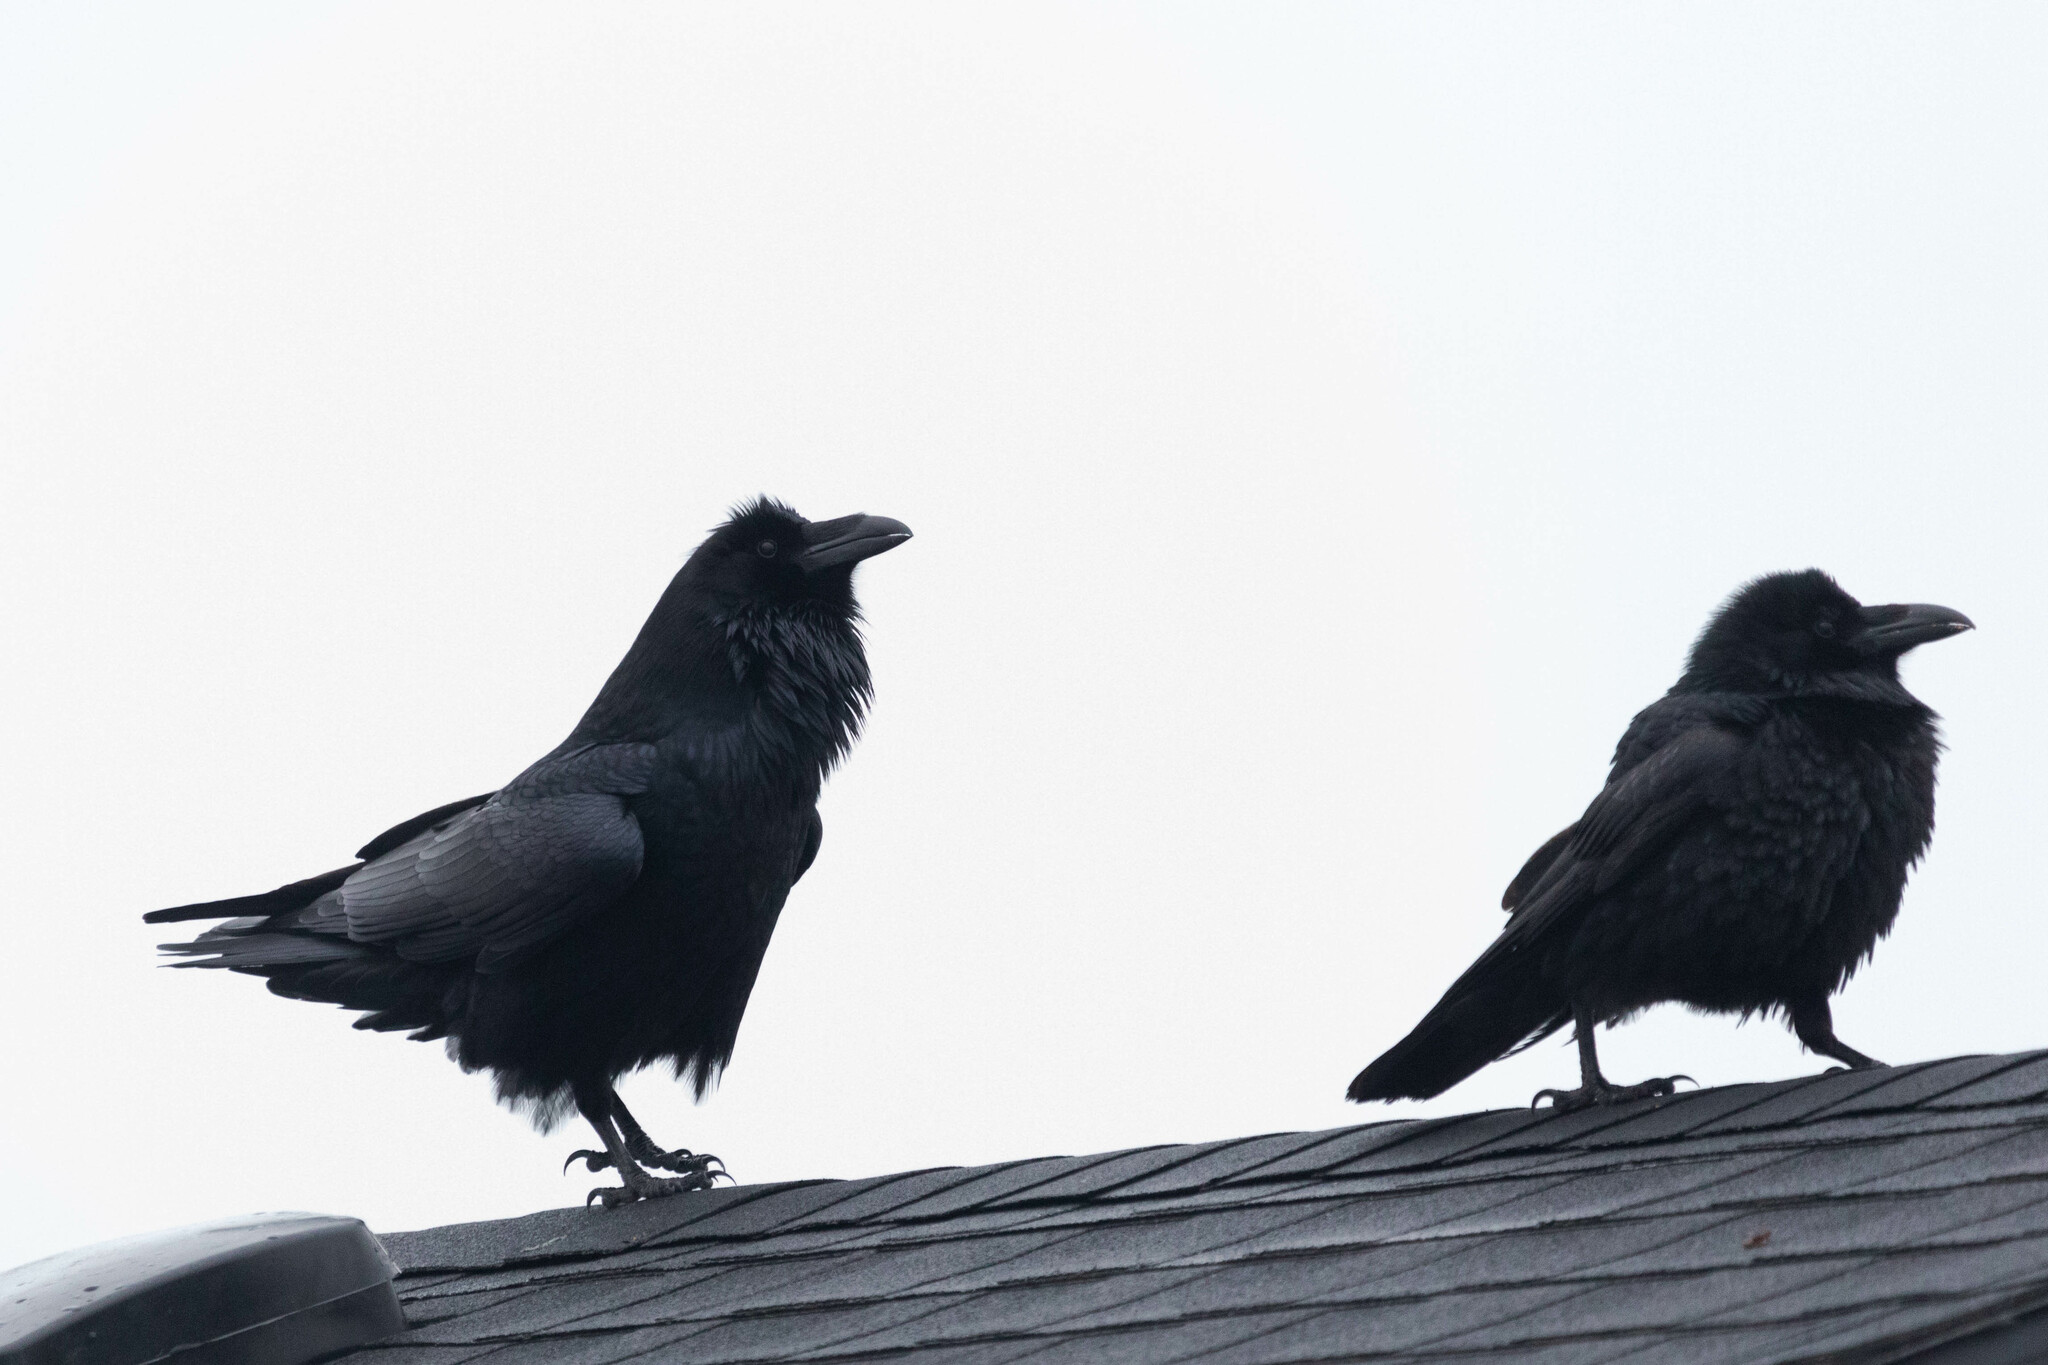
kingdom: Animalia
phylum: Chordata
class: Aves
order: Passeriformes
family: Corvidae
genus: Corvus
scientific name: Corvus corax
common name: Common raven
